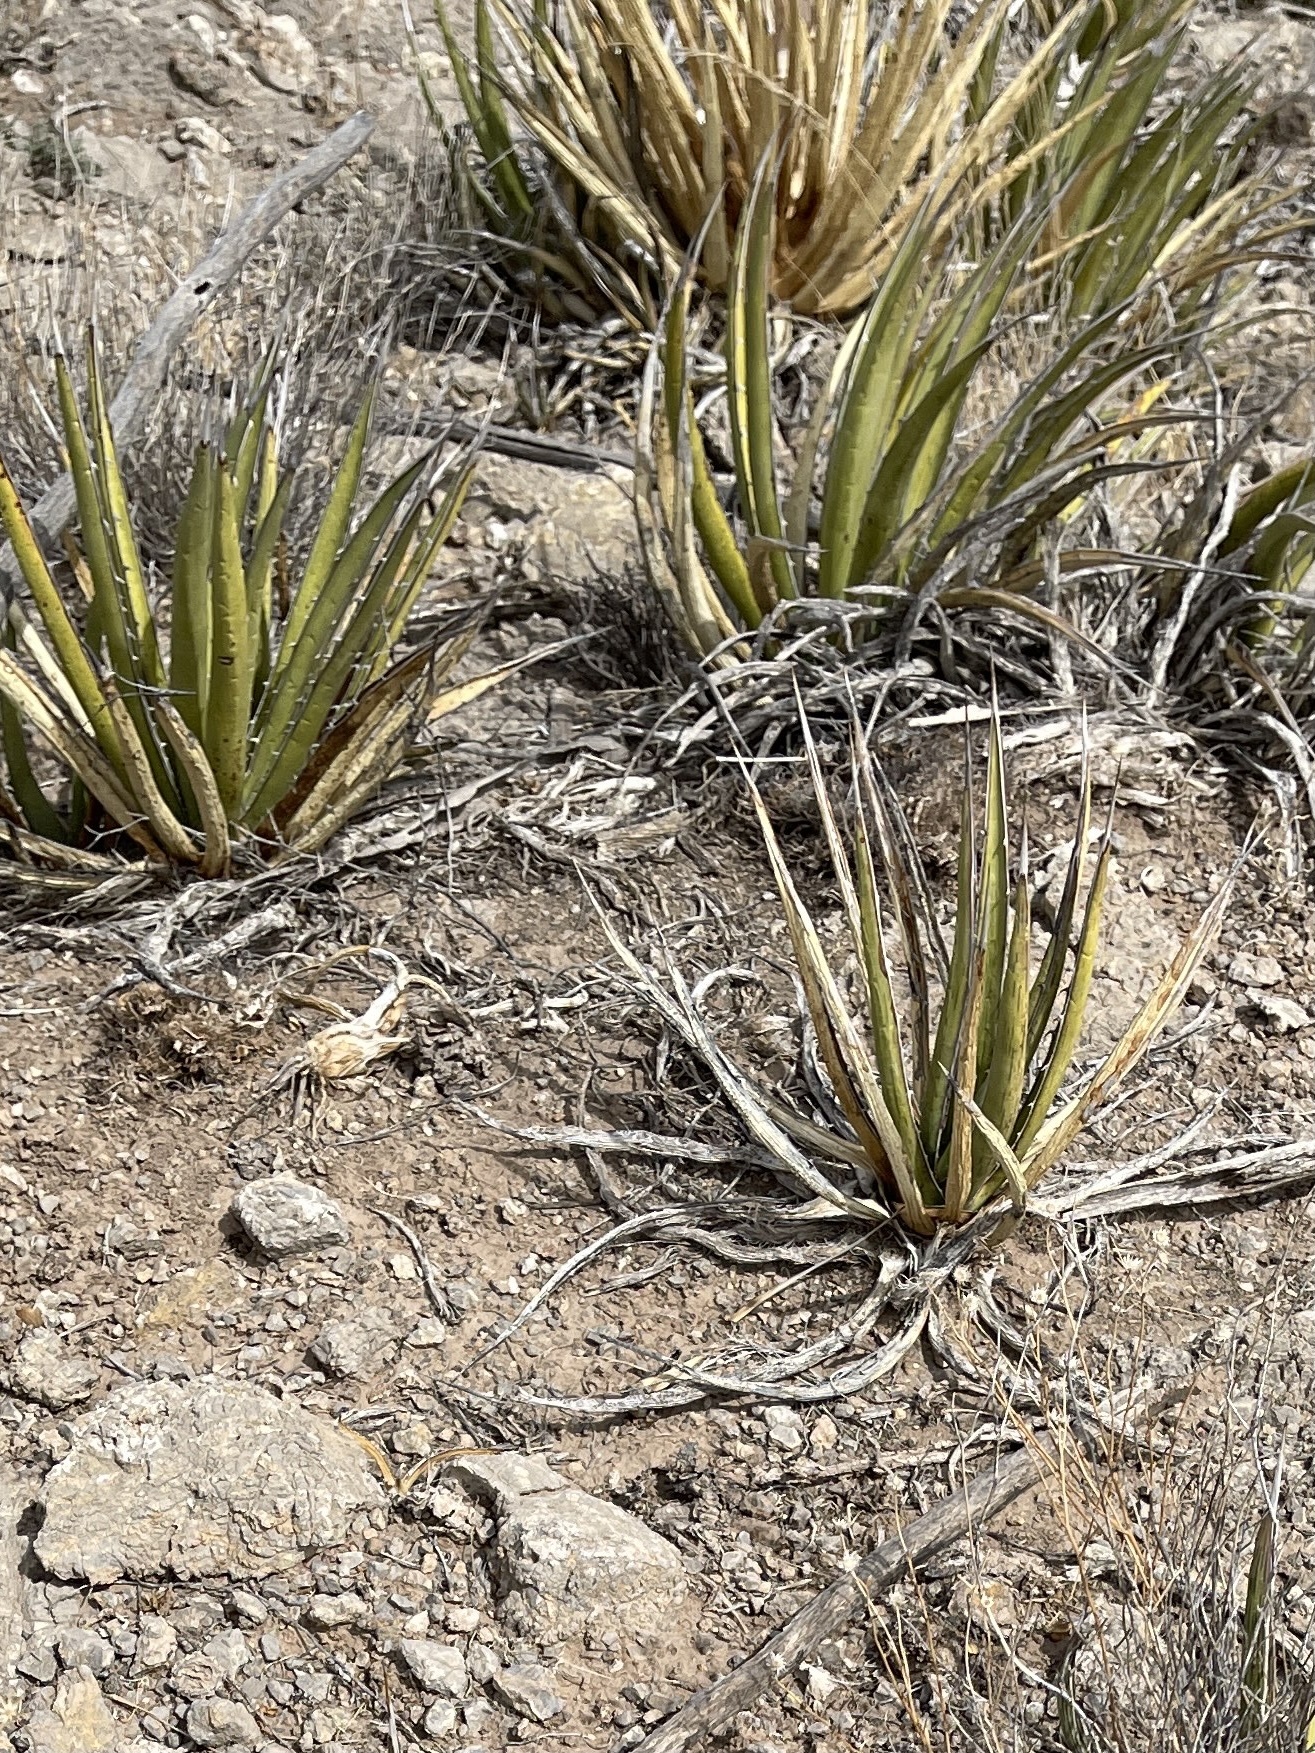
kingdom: Plantae
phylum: Tracheophyta
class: Liliopsida
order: Asparagales
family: Asparagaceae
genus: Agave
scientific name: Agave lechuguilla
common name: Lecheguilla agave
